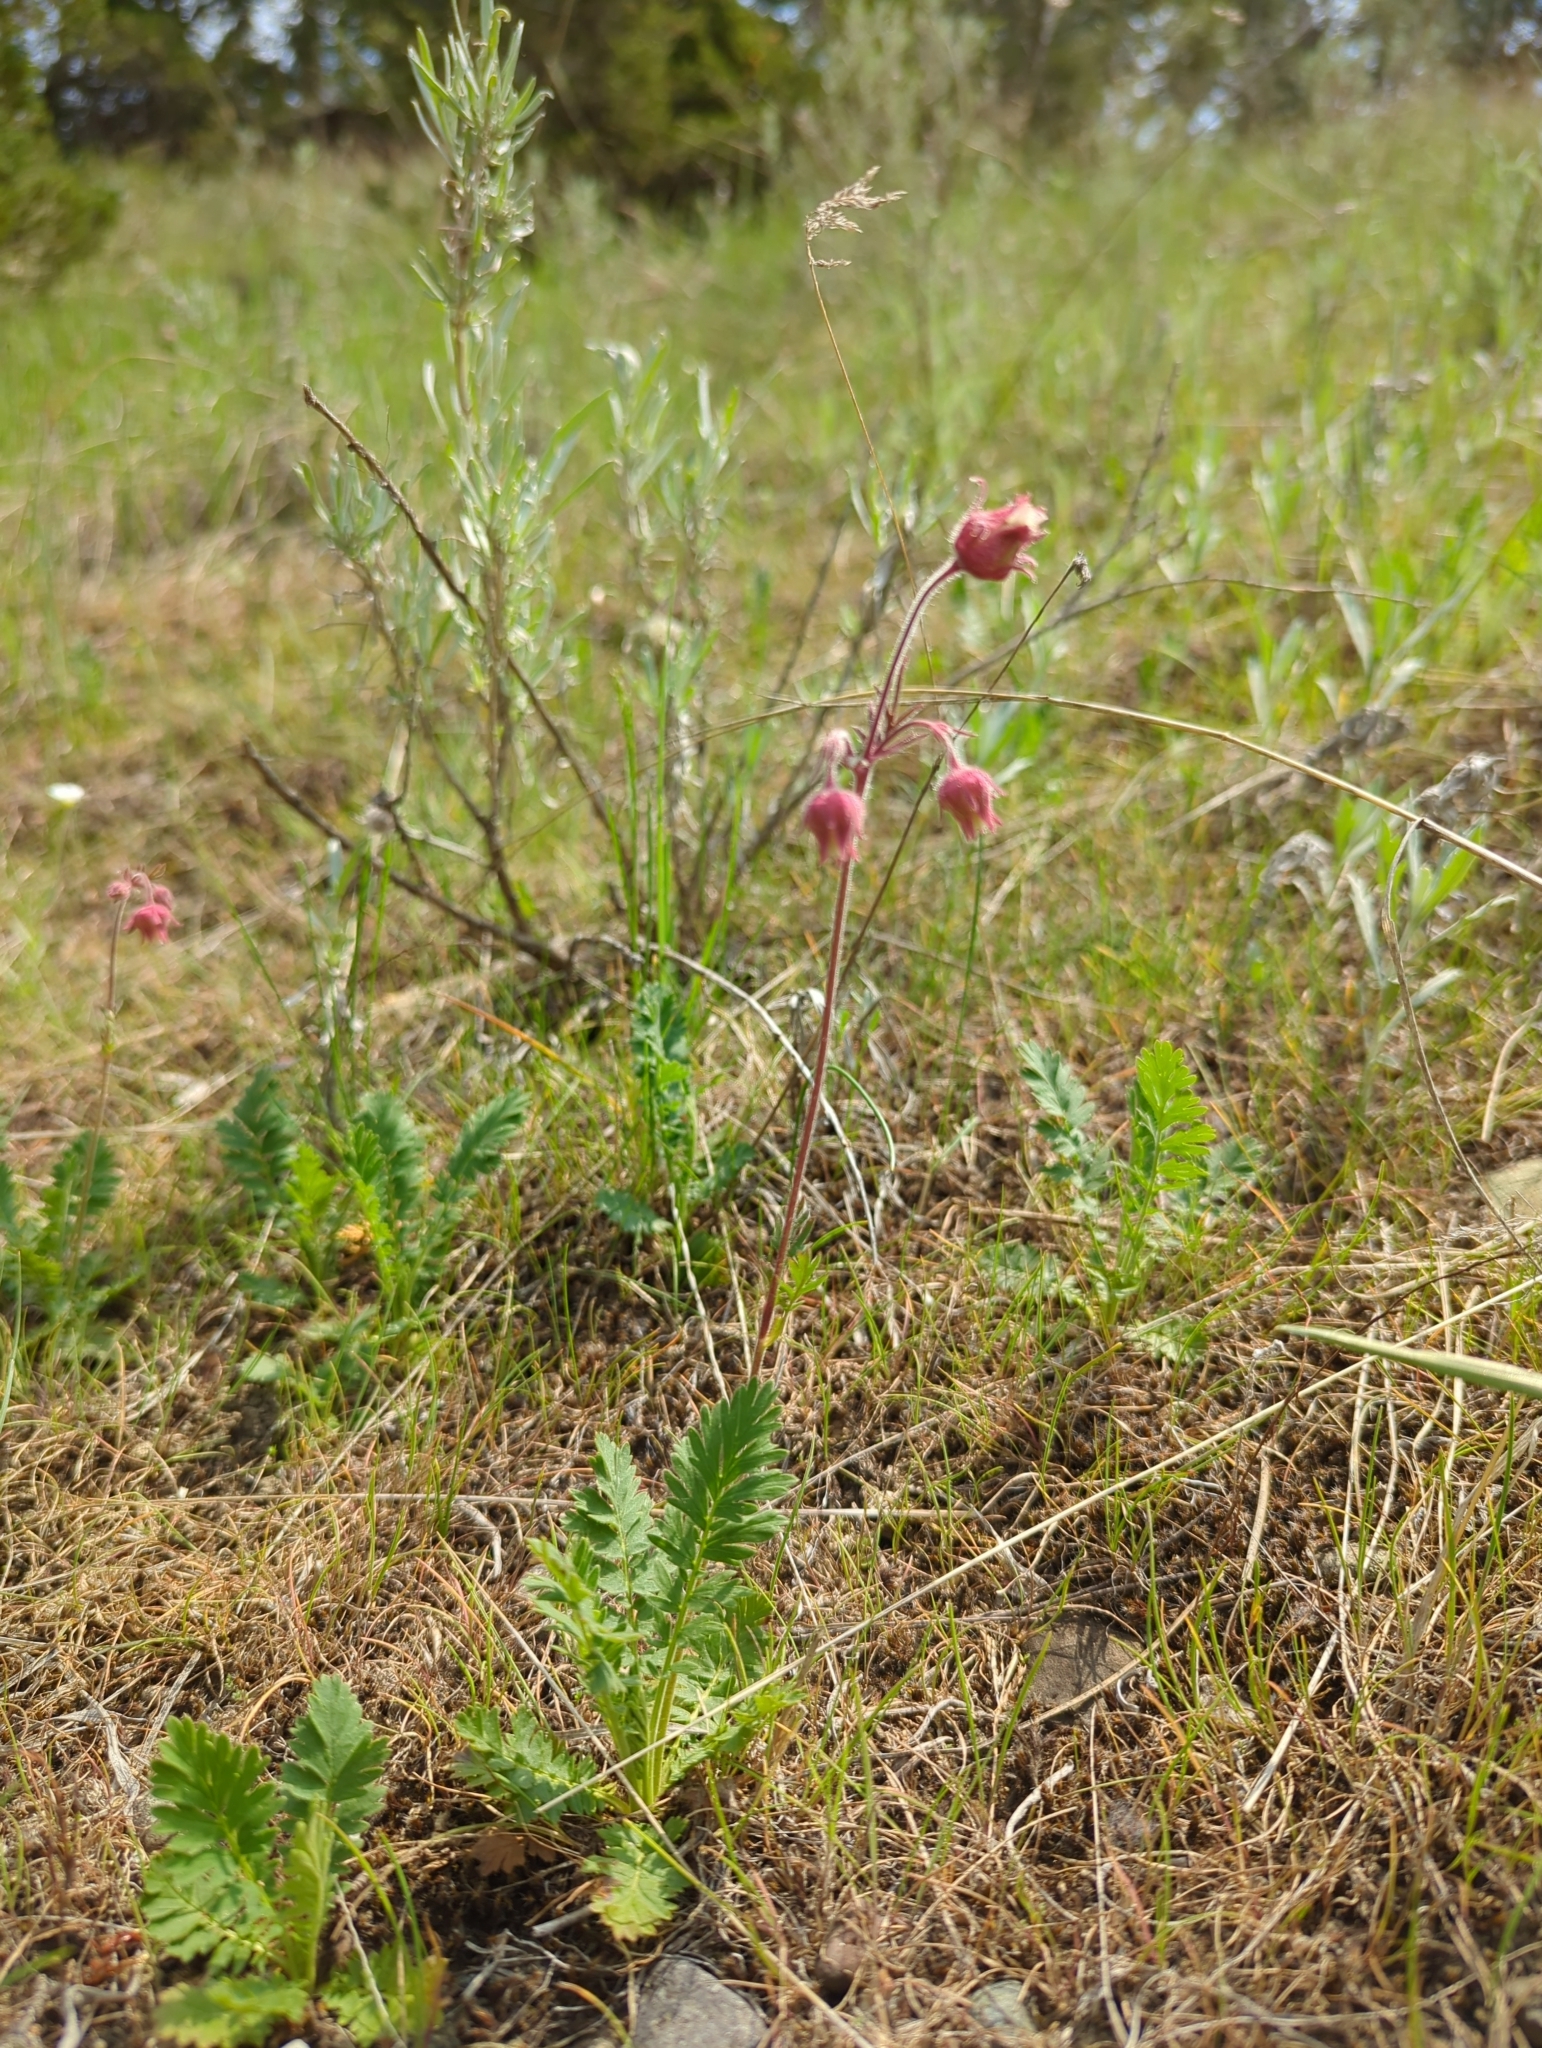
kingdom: Plantae
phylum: Tracheophyta
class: Magnoliopsida
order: Rosales
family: Rosaceae
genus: Geum
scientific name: Geum triflorum
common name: Old man's whiskers
